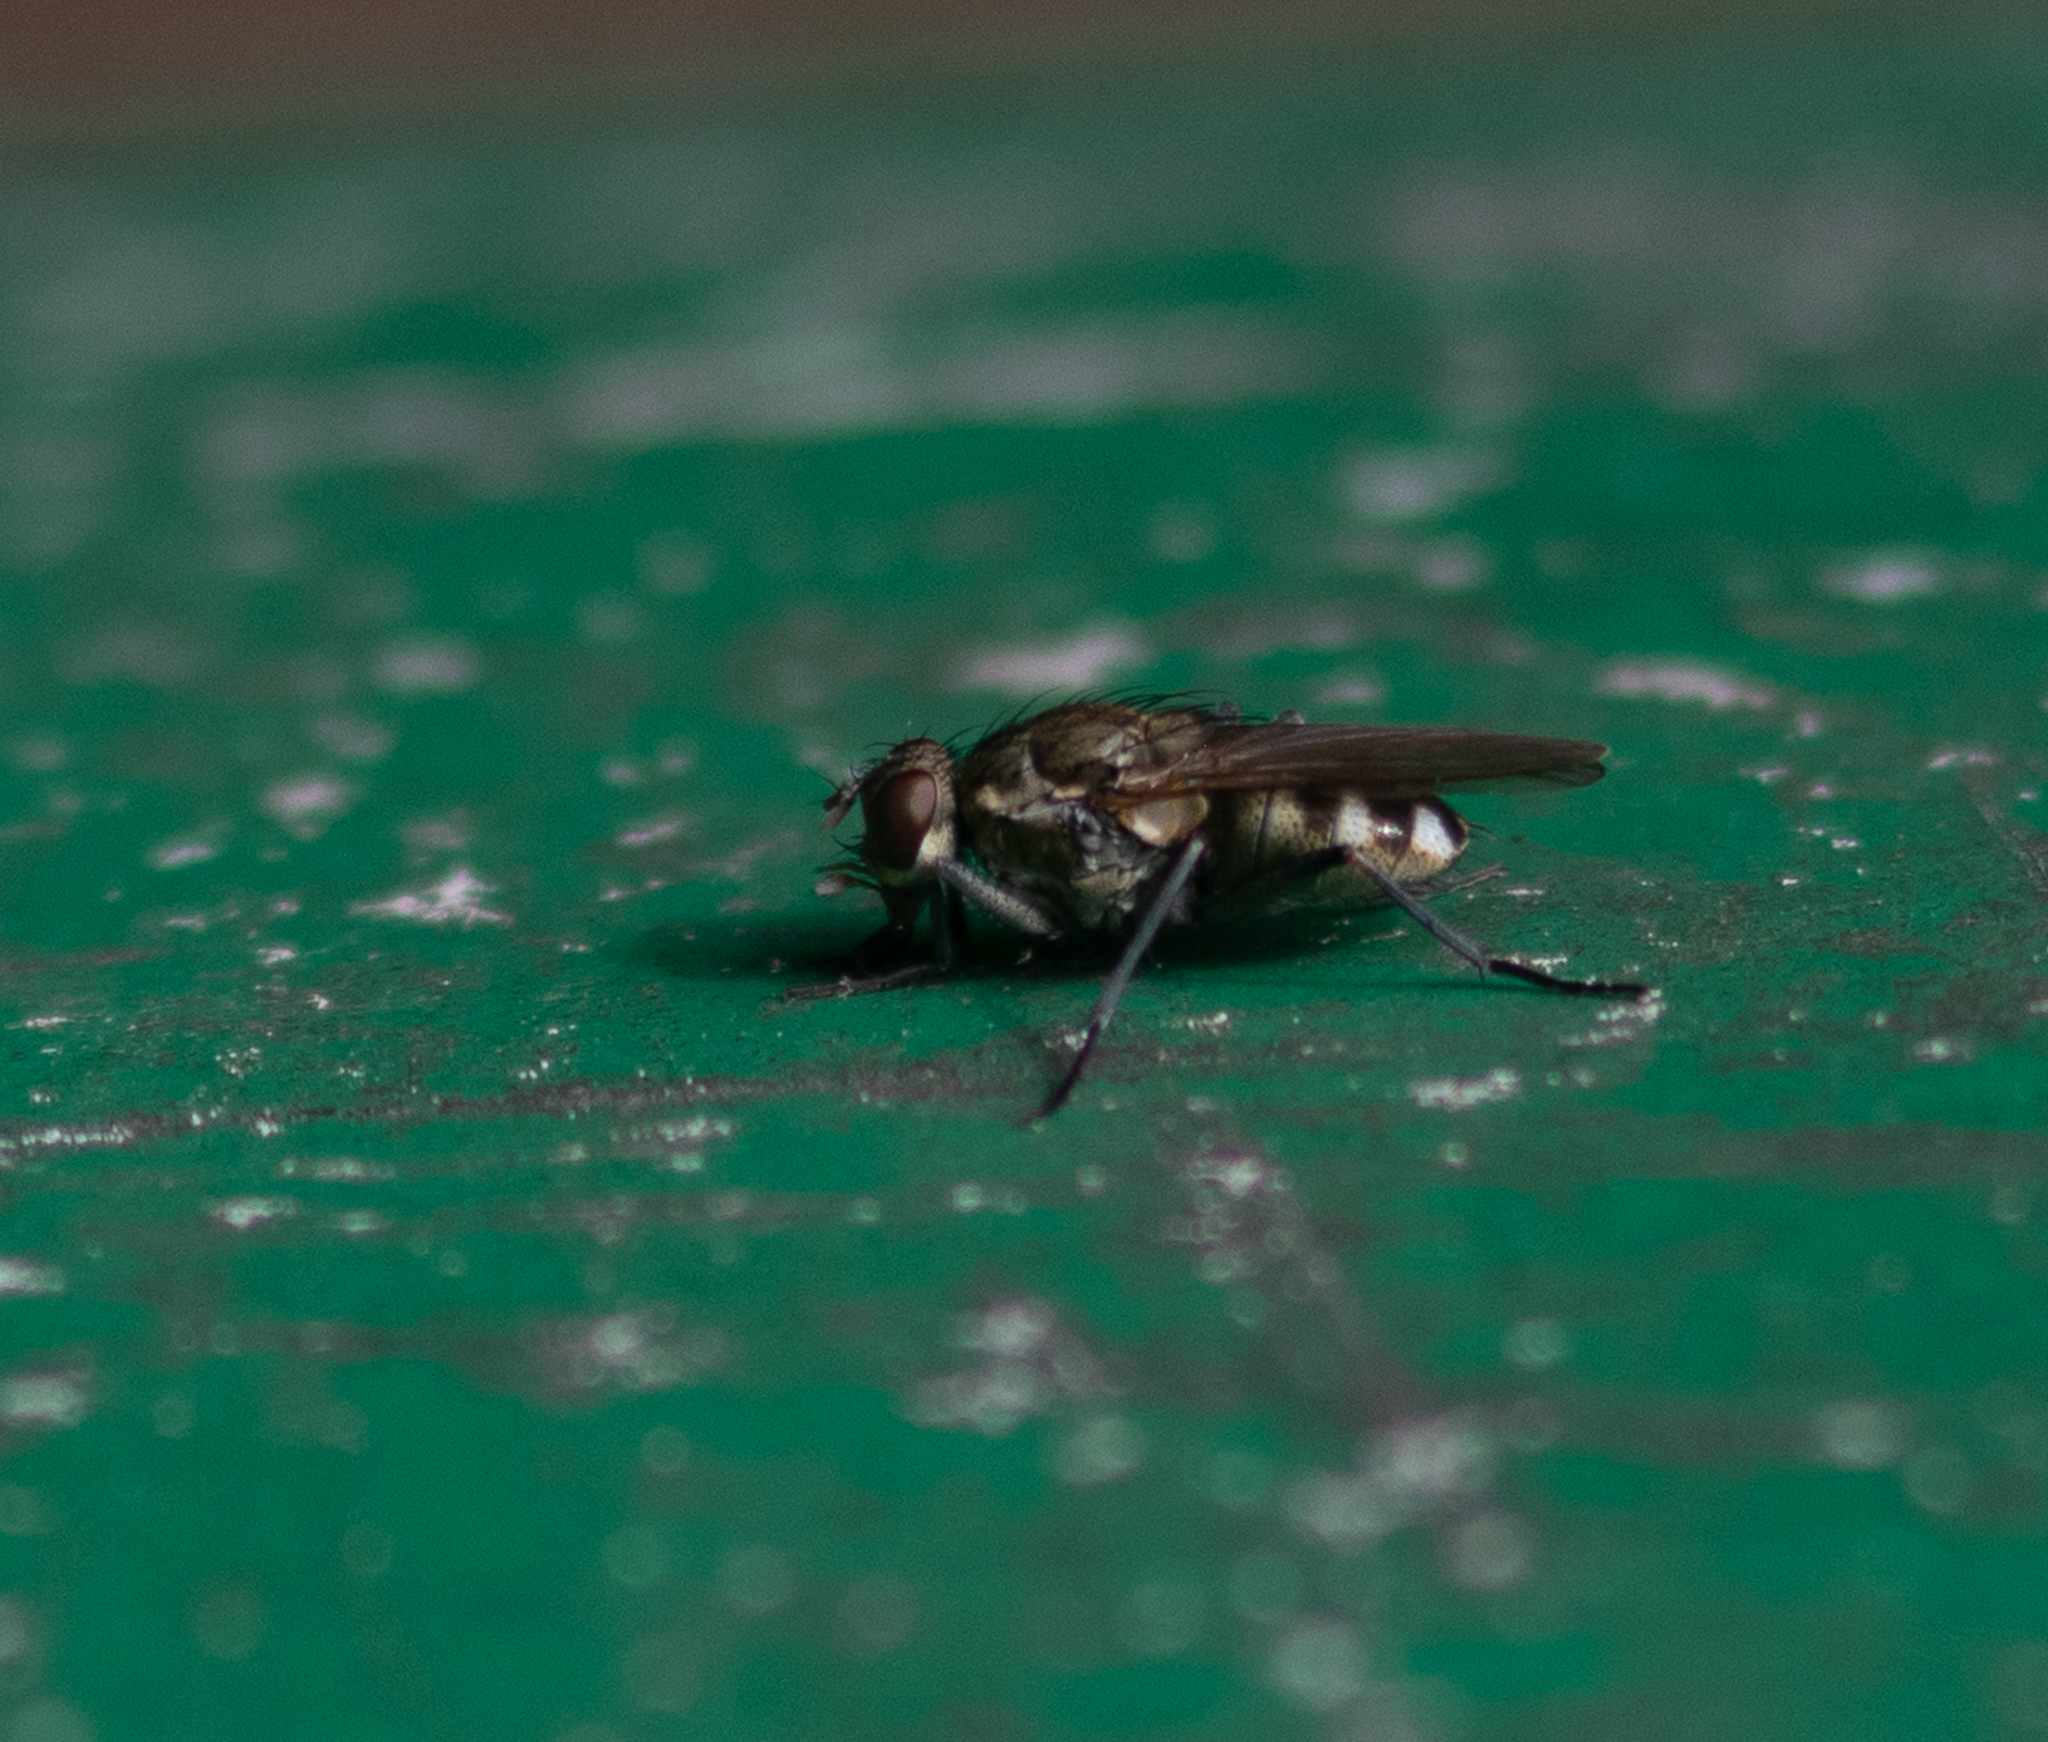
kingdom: Animalia
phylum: Arthropoda
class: Insecta
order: Diptera
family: Muscidae
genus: Lispe
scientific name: Lispe
